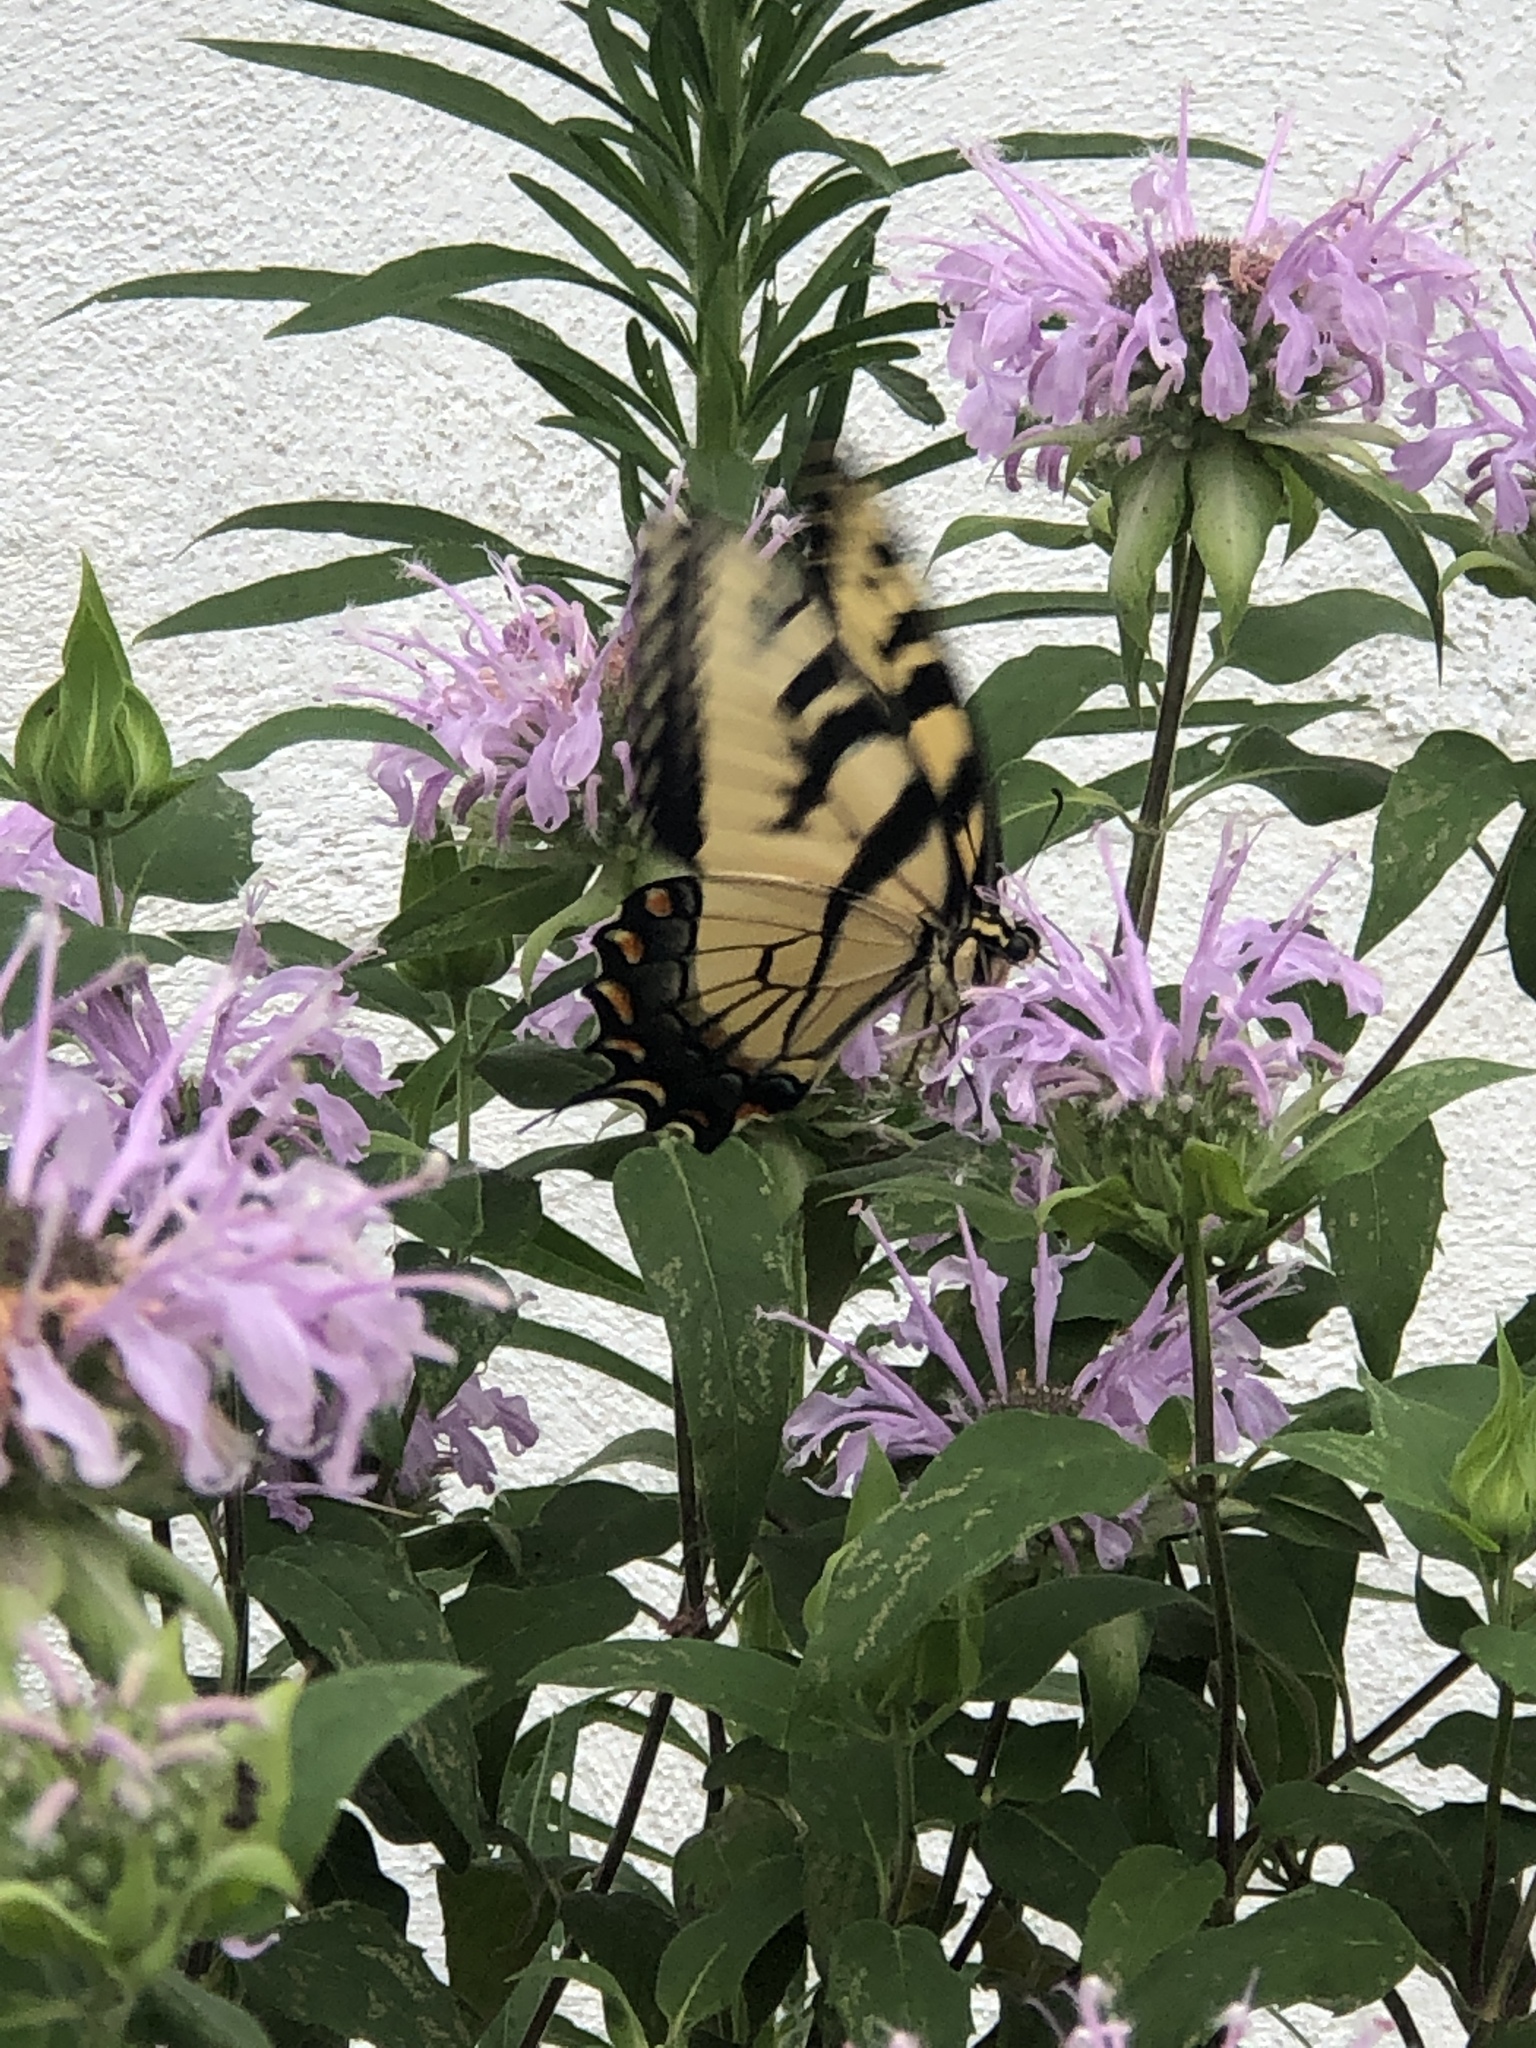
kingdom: Animalia
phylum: Arthropoda
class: Insecta
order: Lepidoptera
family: Papilionidae
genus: Papilio
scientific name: Papilio glaucus
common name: Tiger swallowtail
